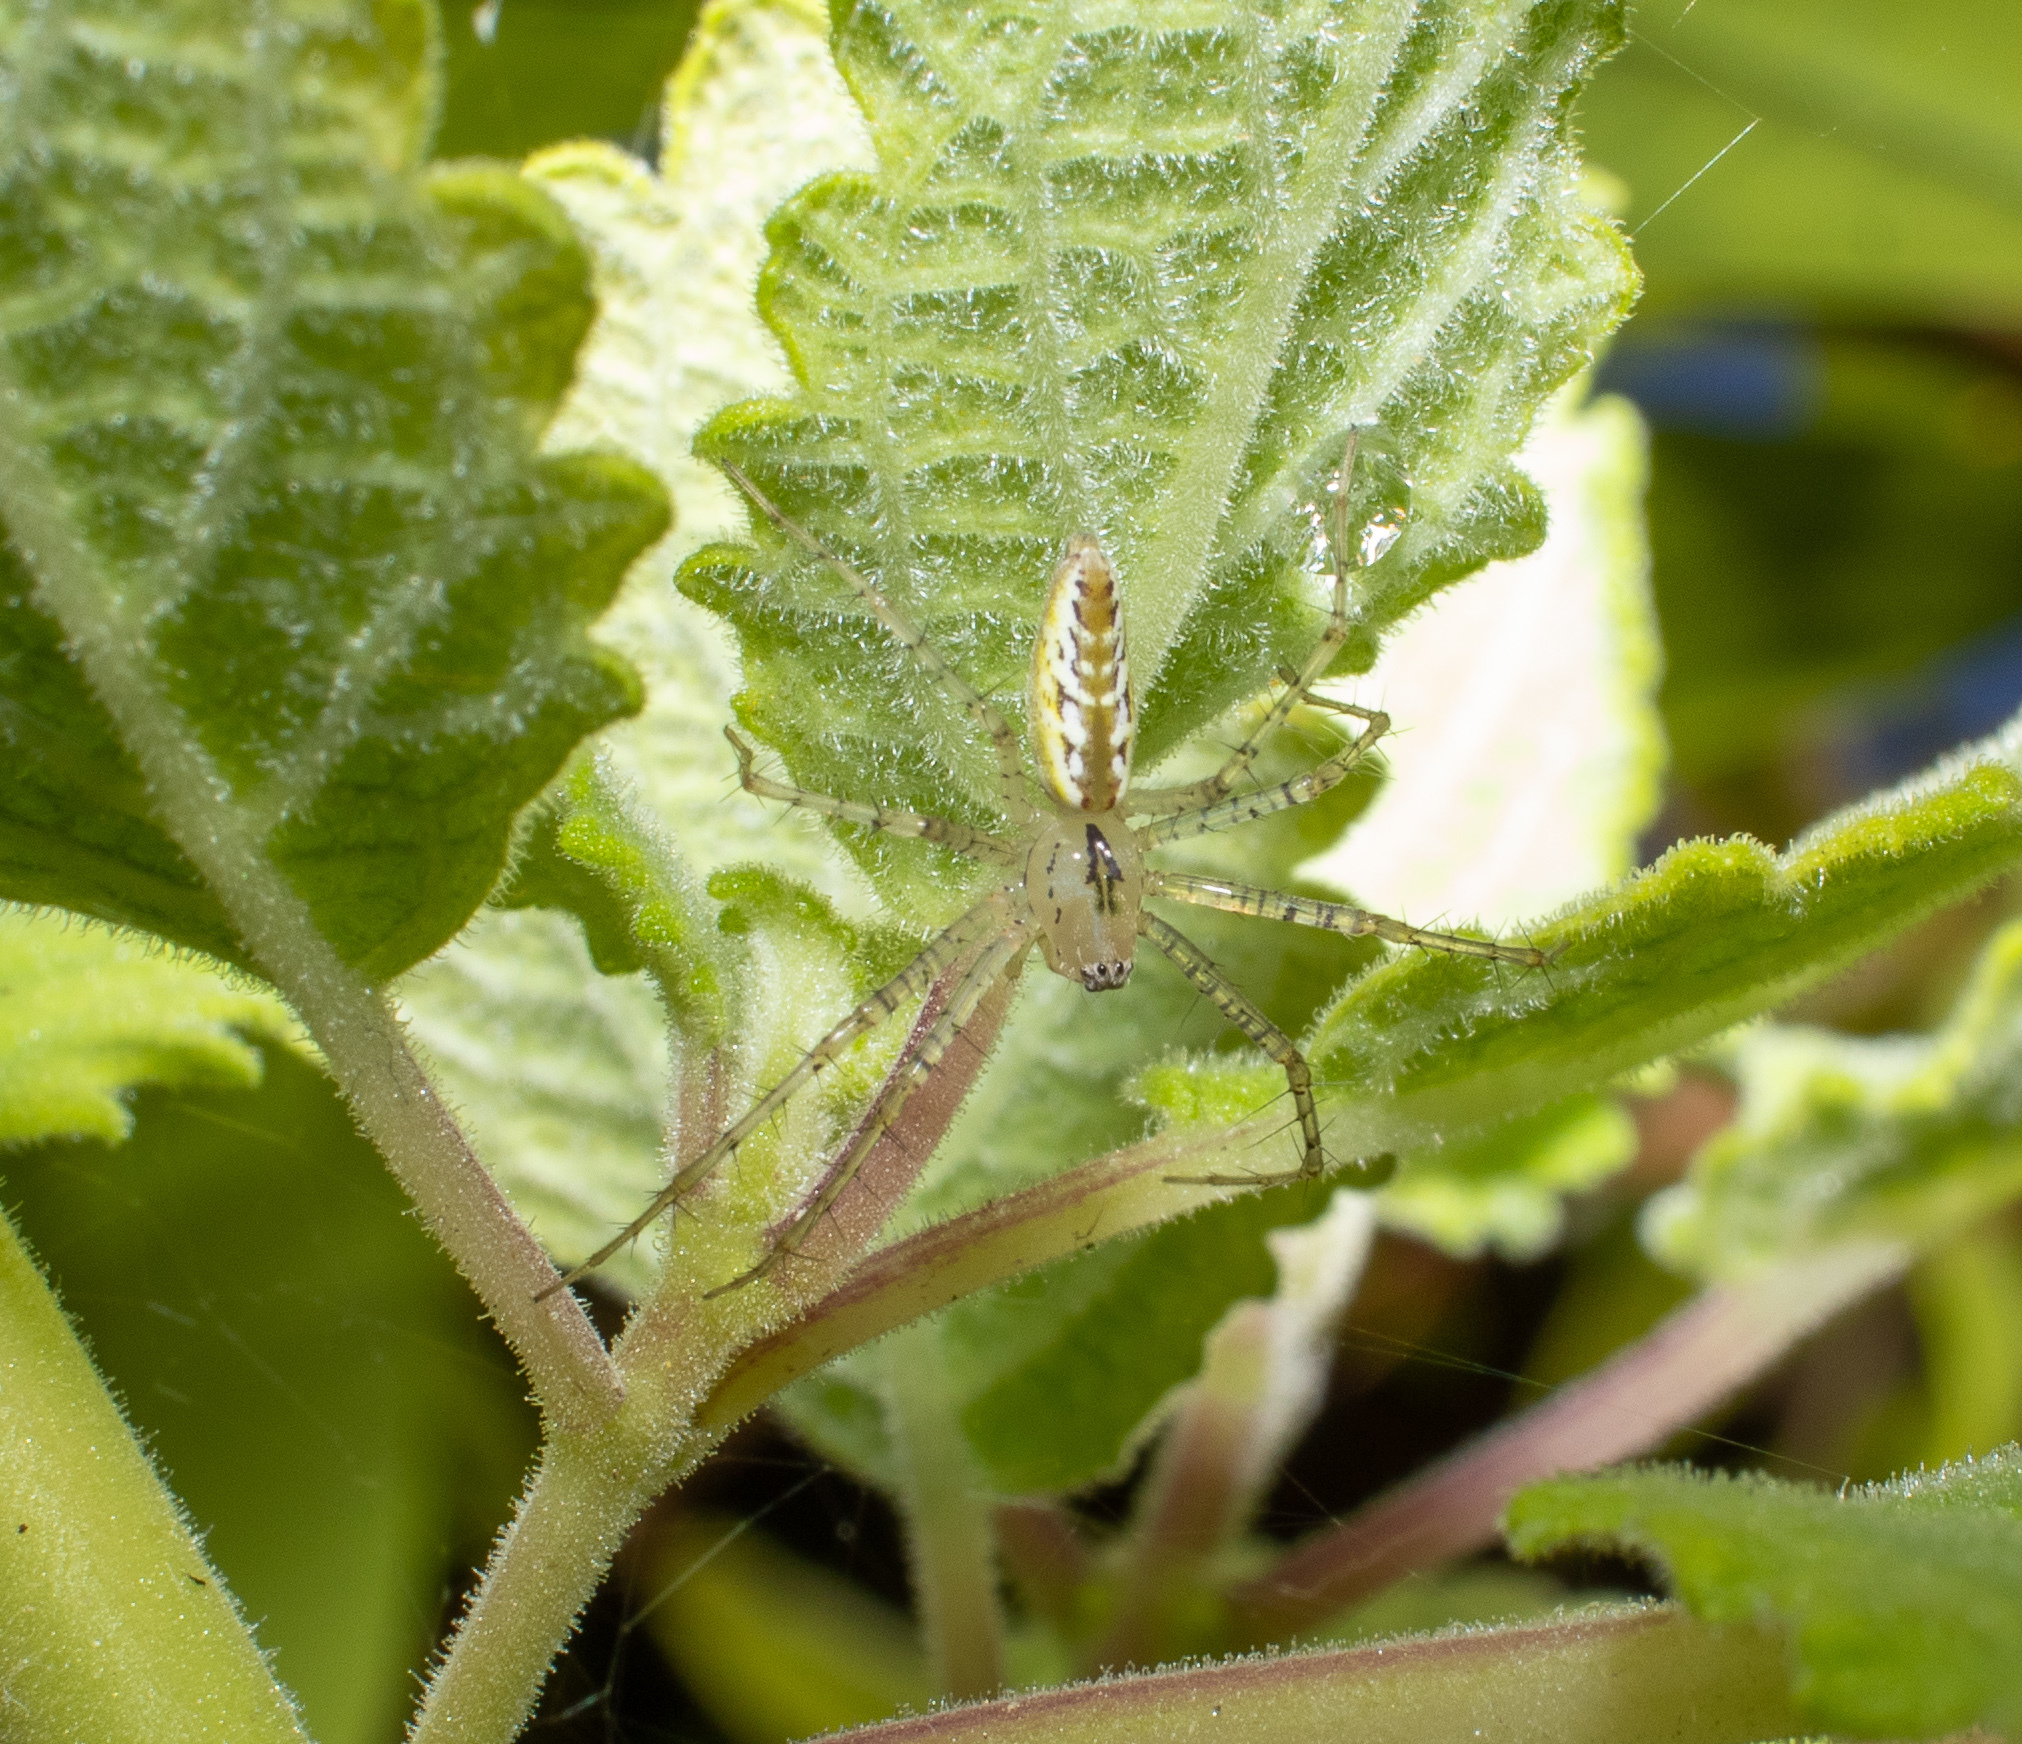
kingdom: Animalia
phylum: Arthropoda
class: Arachnida
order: Araneae
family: Oxyopidae
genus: Peucetia
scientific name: Peucetia flava
